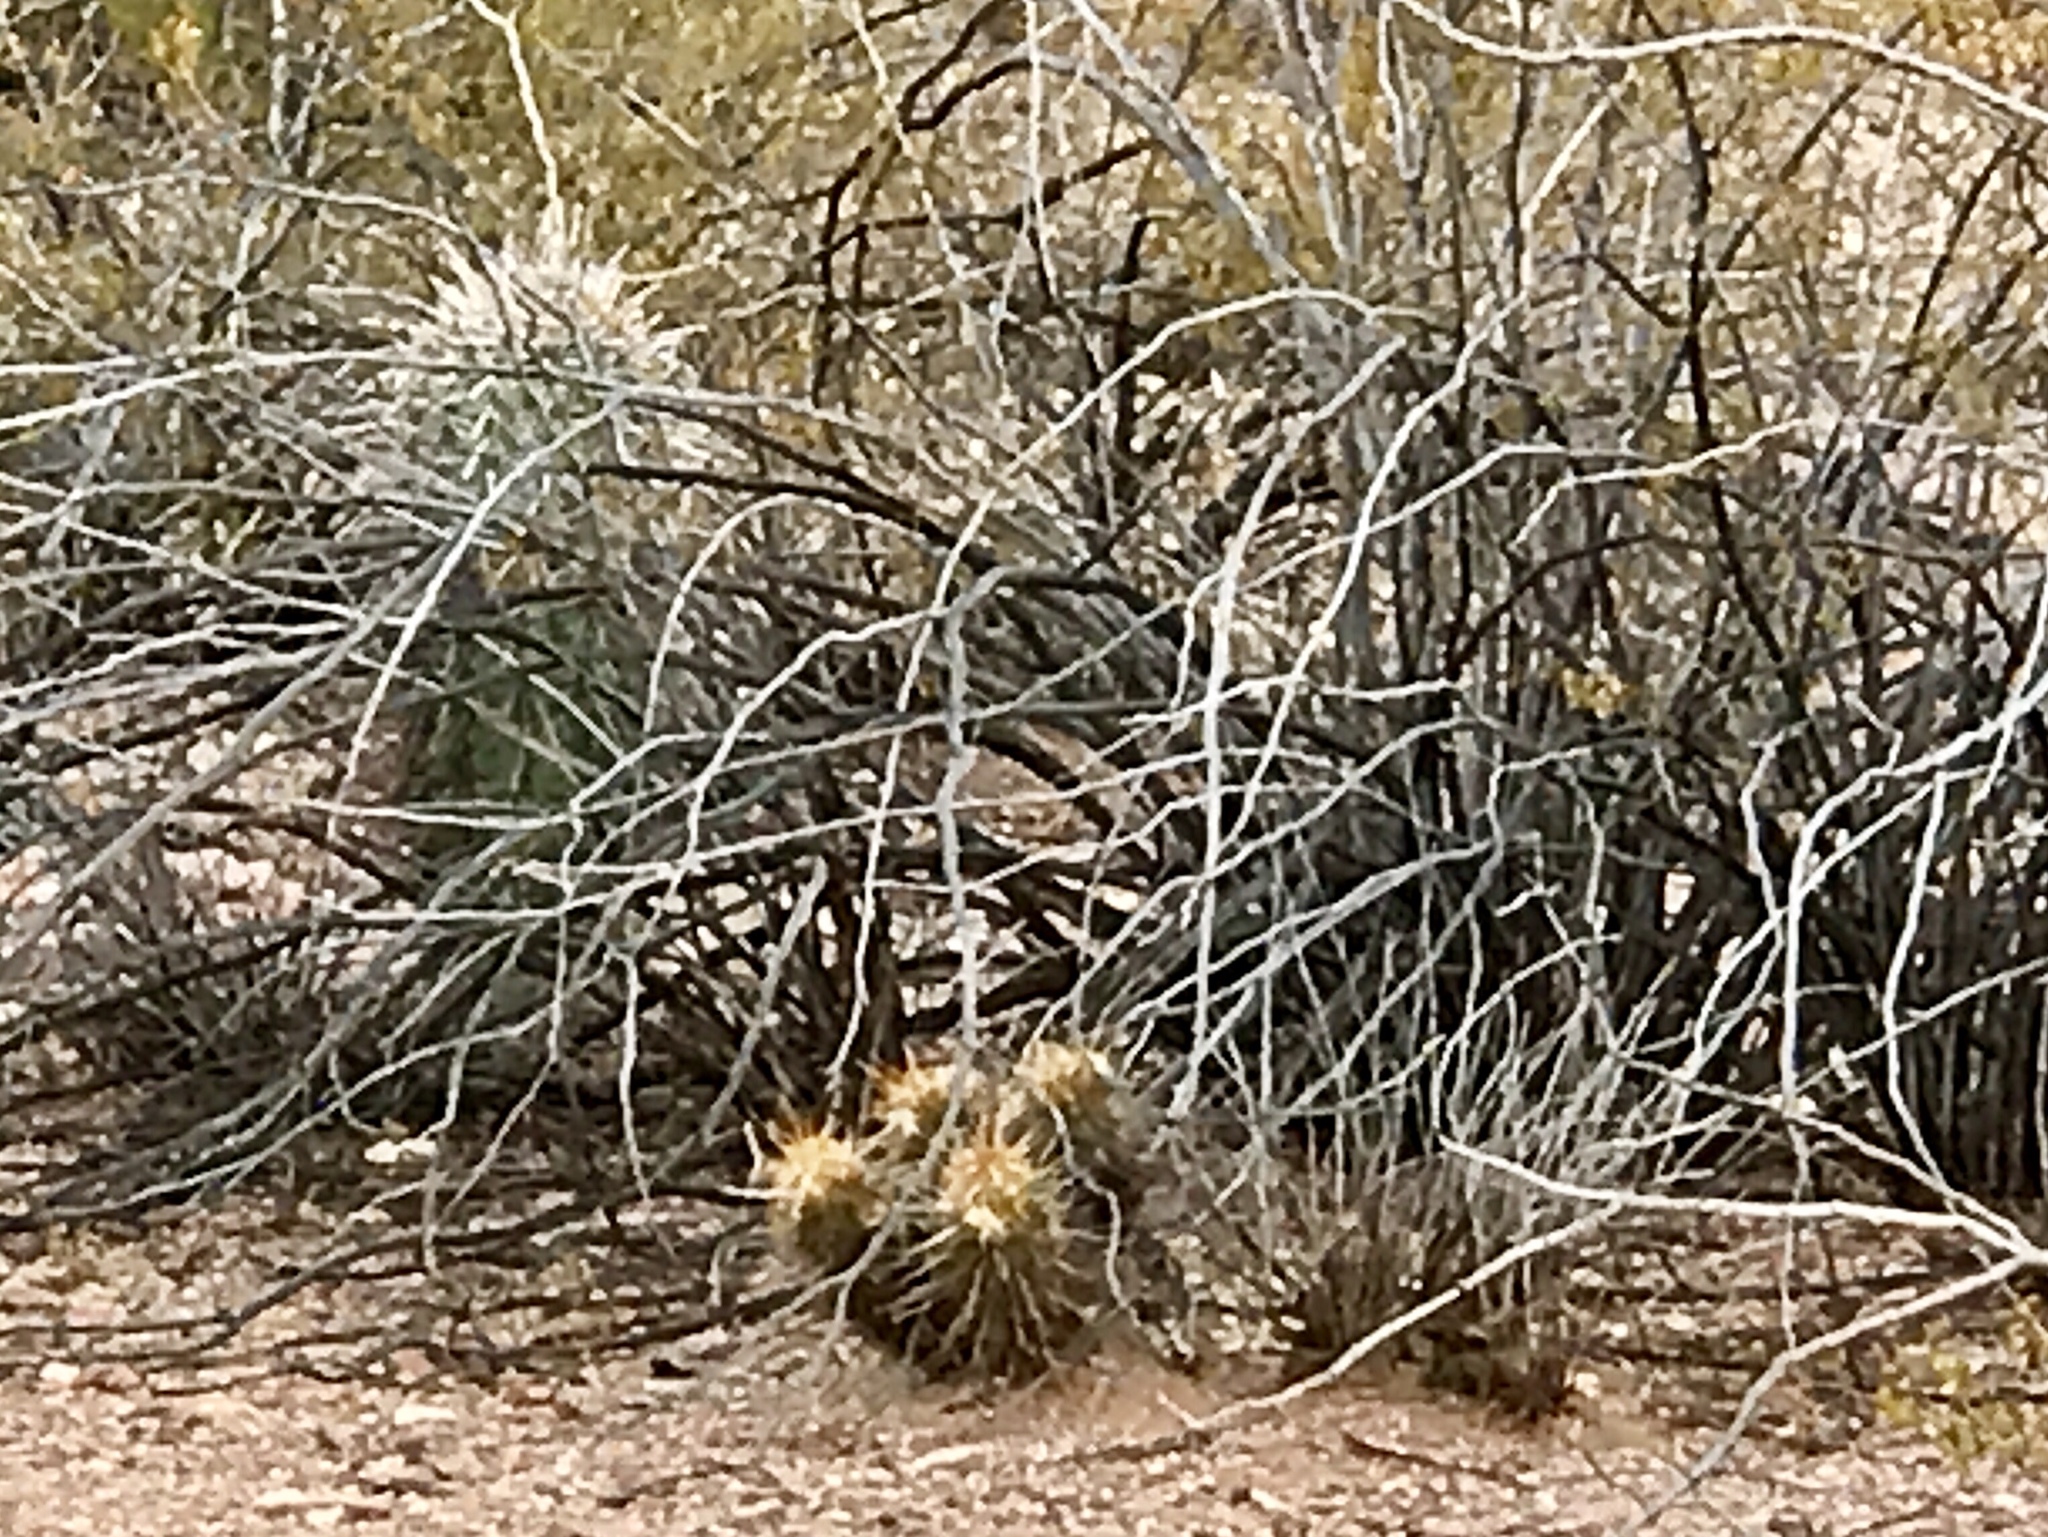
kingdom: Plantae
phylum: Tracheophyta
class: Magnoliopsida
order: Caryophyllales
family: Cactaceae
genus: Ferocactus
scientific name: Ferocactus wislizeni
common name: Candy barrel cactus
